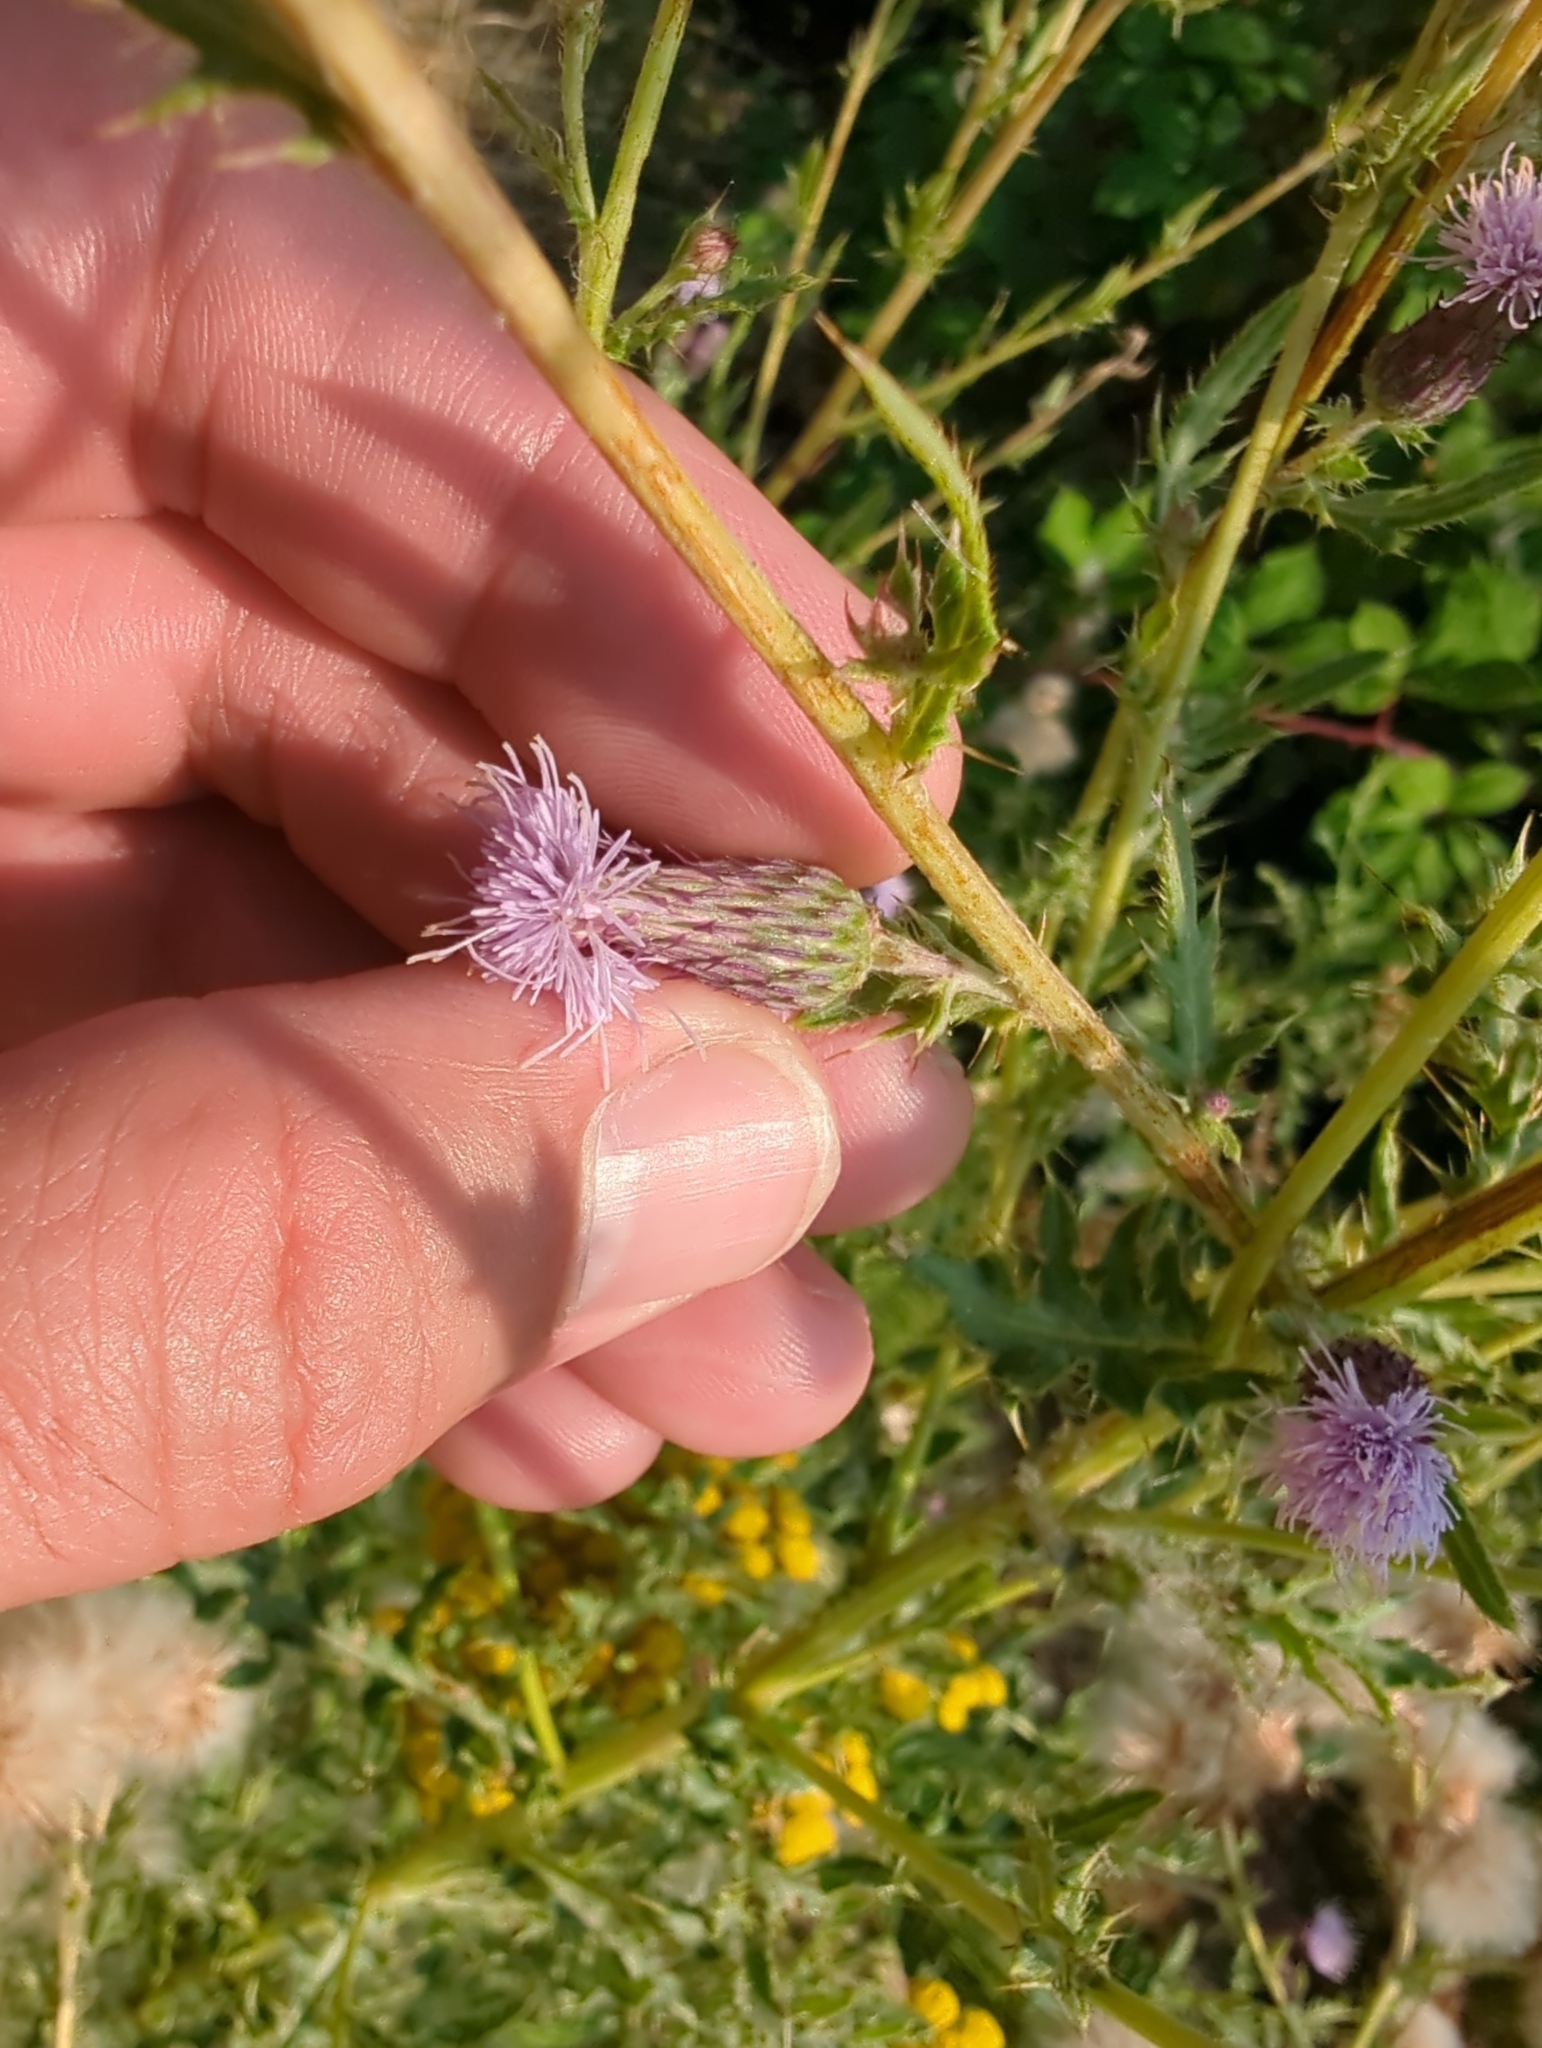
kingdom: Plantae
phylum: Tracheophyta
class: Magnoliopsida
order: Asterales
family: Asteraceae
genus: Cirsium
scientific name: Cirsium arvense
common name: Creeping thistle
